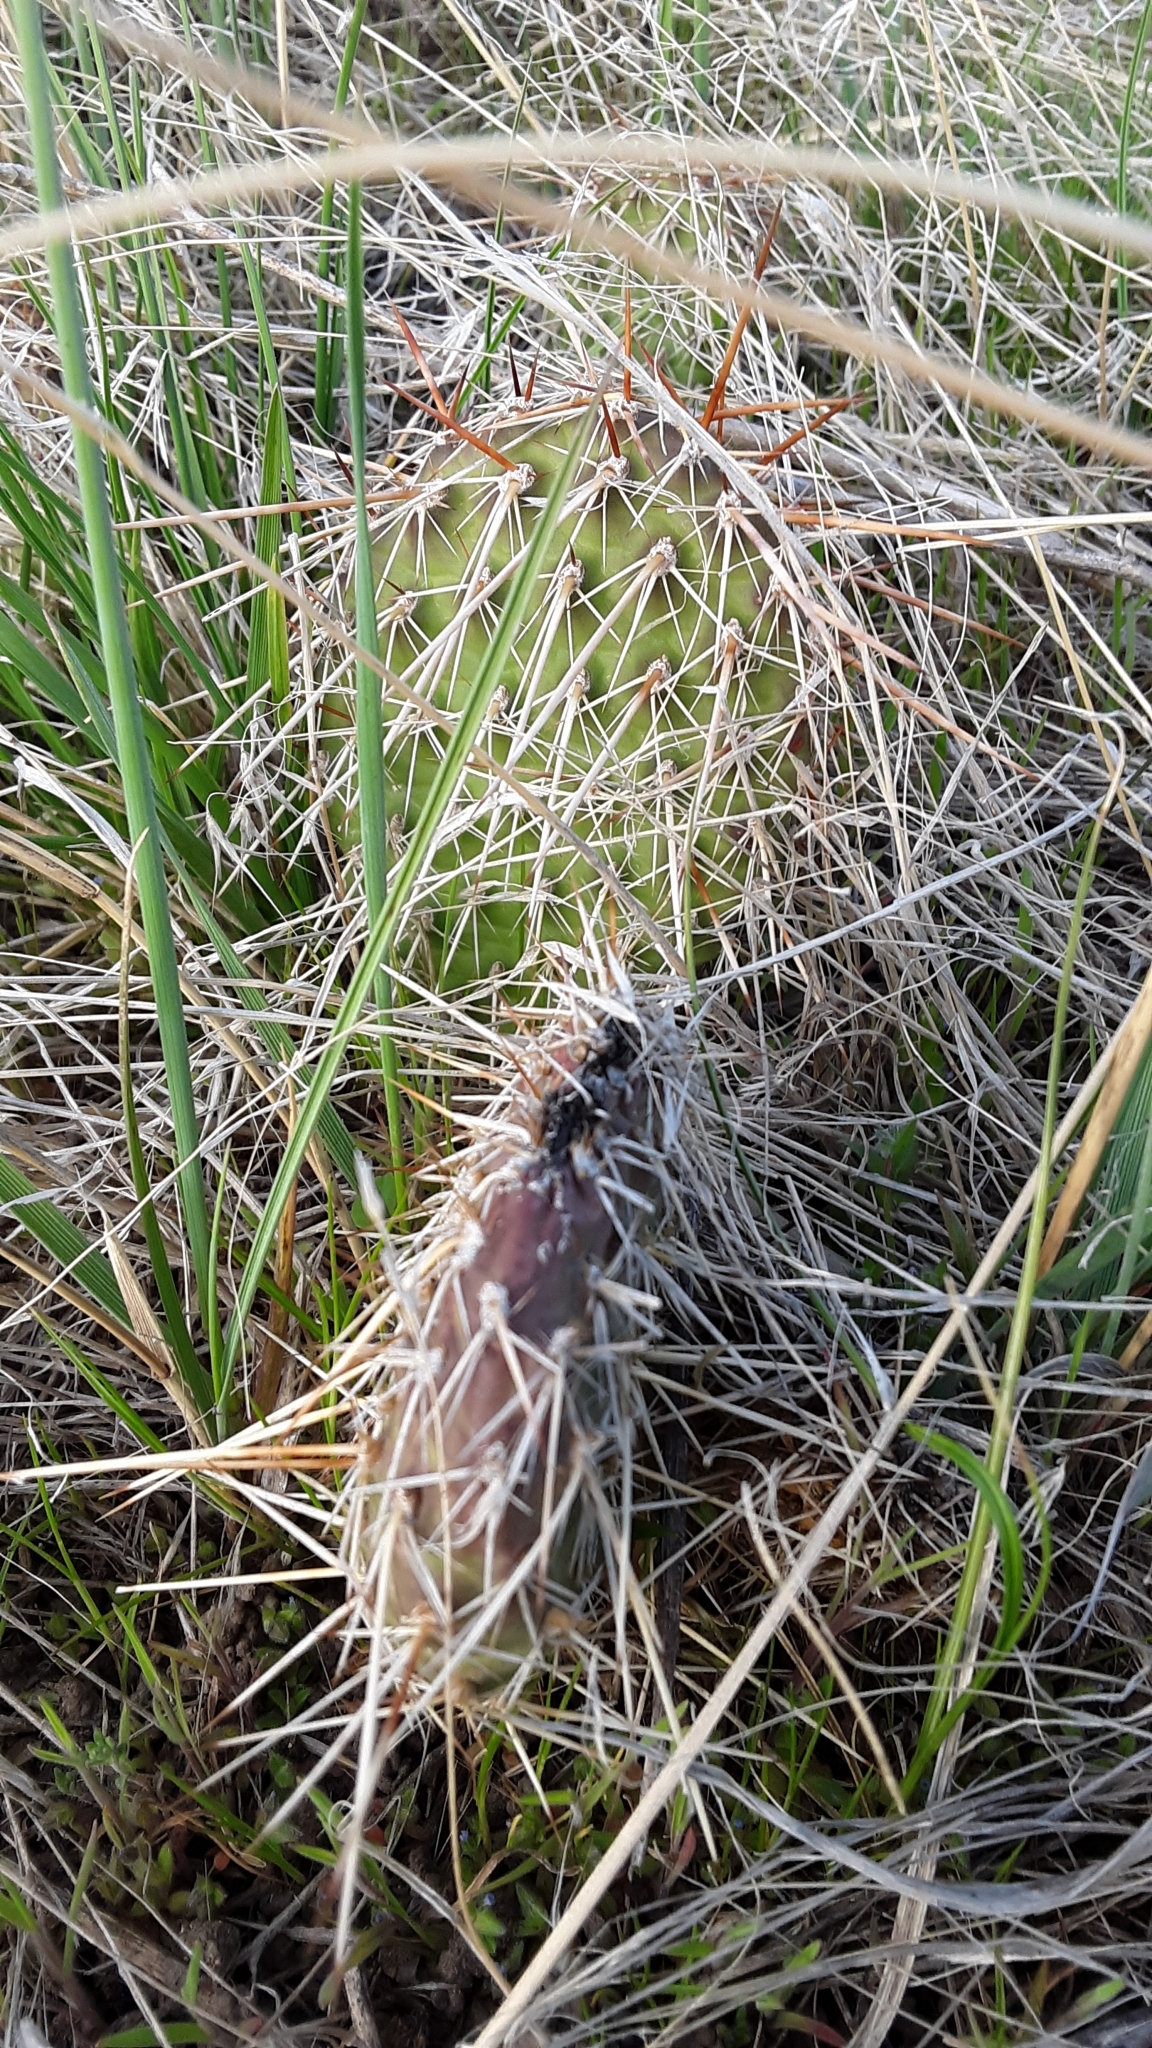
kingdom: Plantae
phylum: Tracheophyta
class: Magnoliopsida
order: Caryophyllales
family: Cactaceae
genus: Opuntia
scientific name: Opuntia polyacantha
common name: Plains prickly-pear
